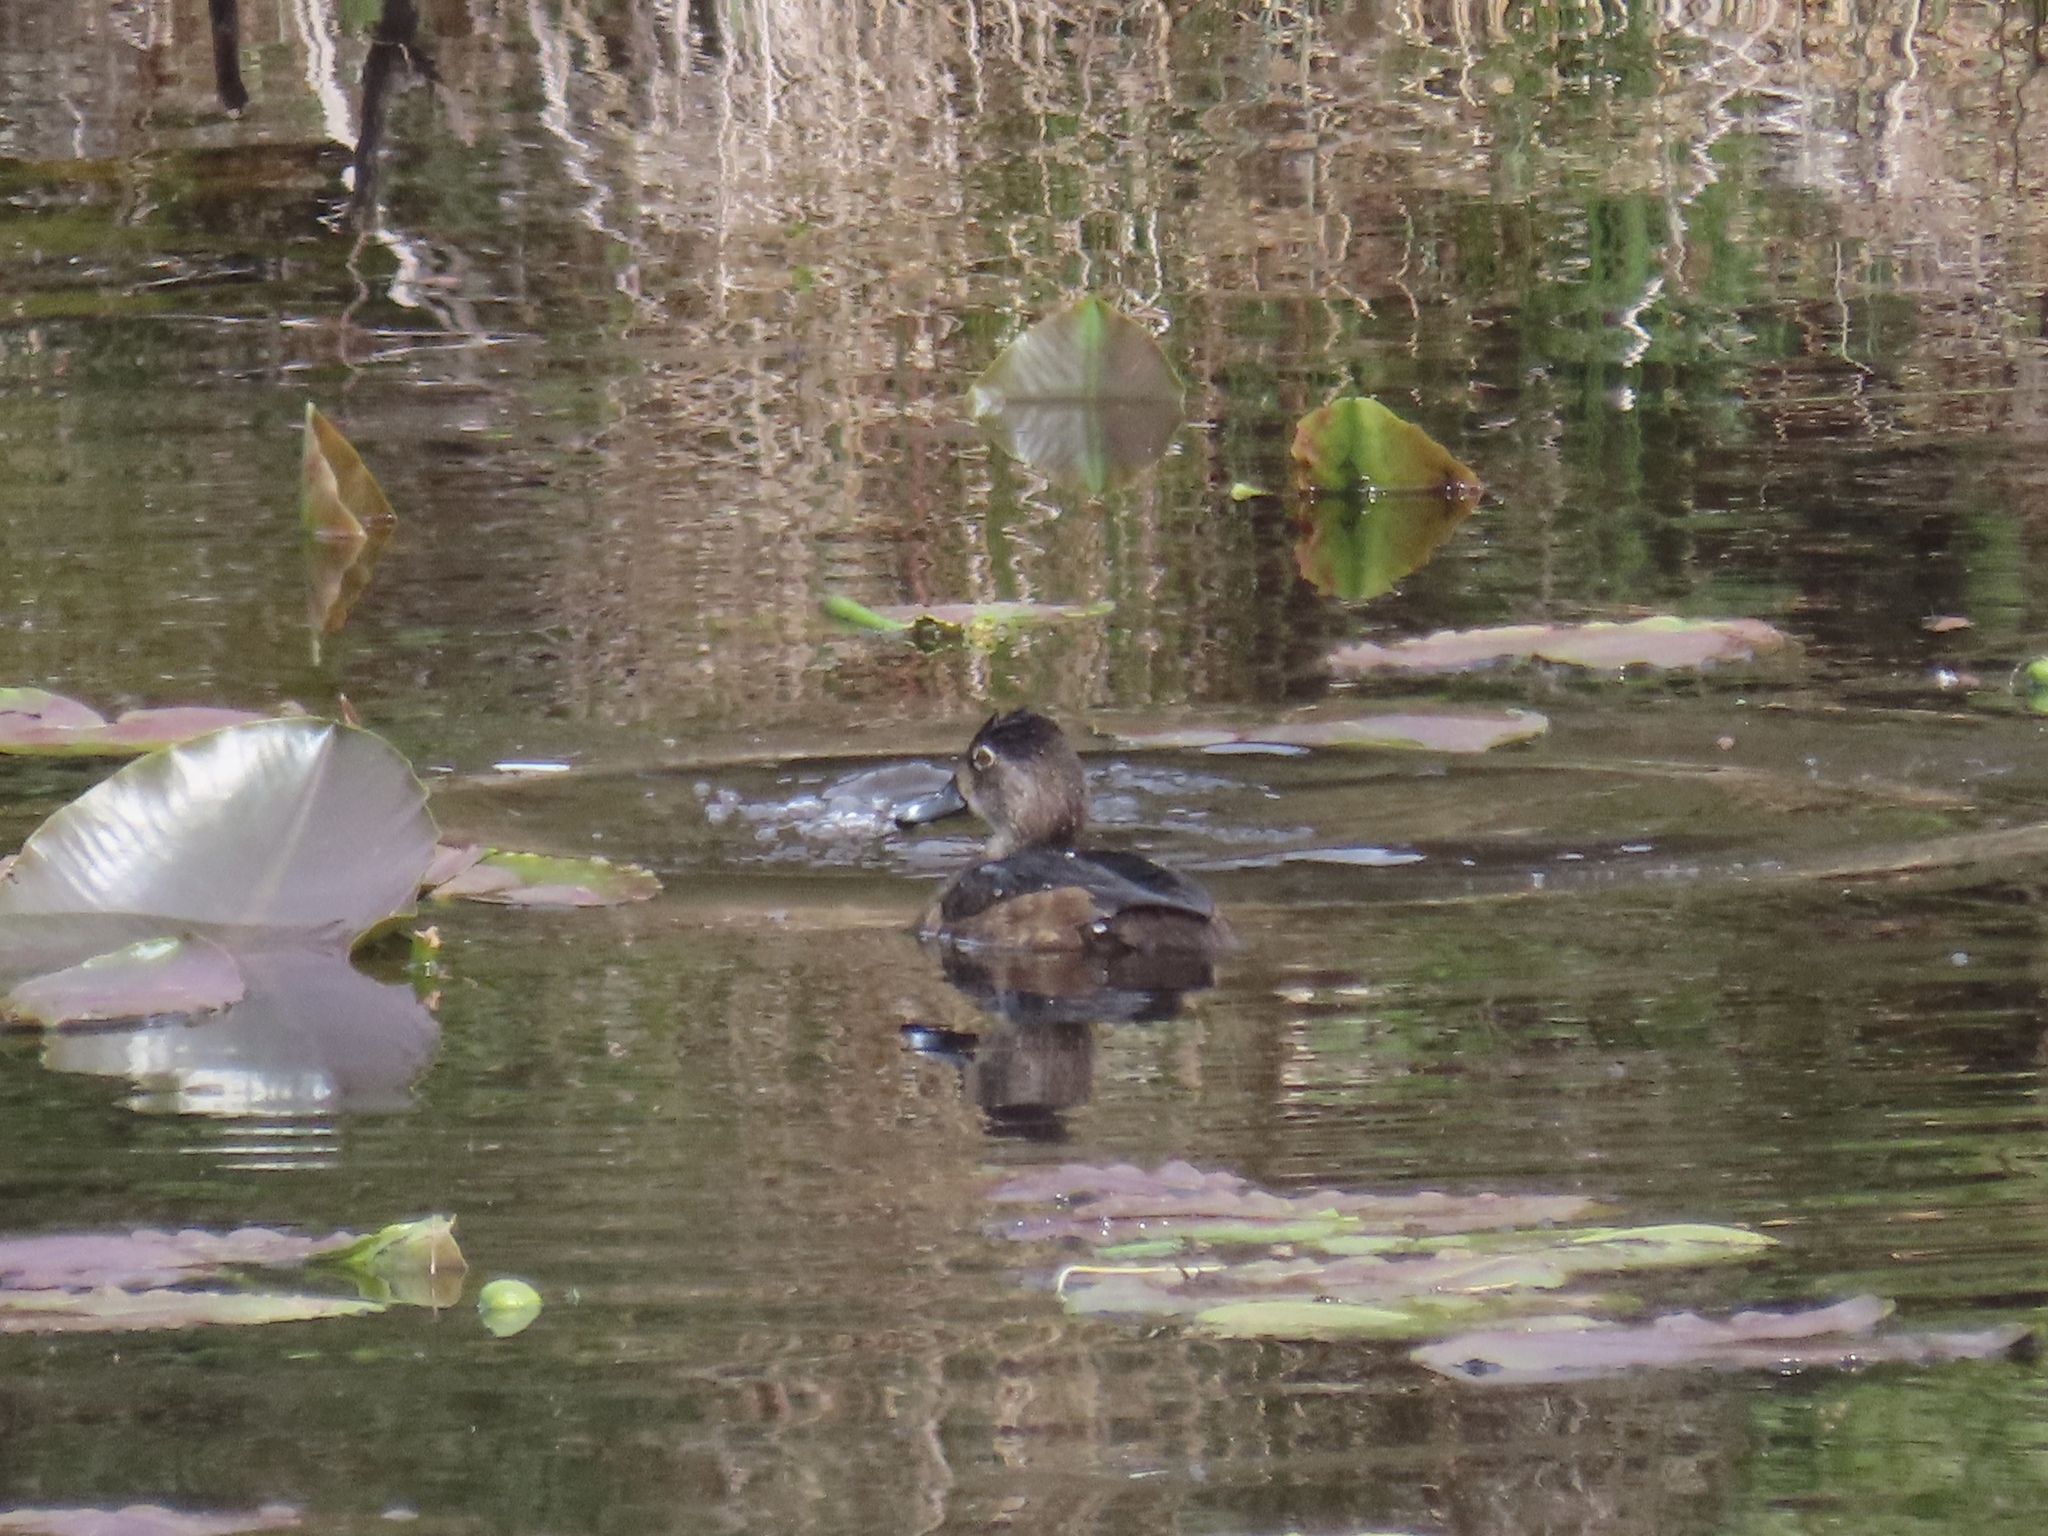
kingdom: Animalia
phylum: Chordata
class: Aves
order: Anseriformes
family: Anatidae
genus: Aythya
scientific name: Aythya collaris
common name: Ring-necked duck
